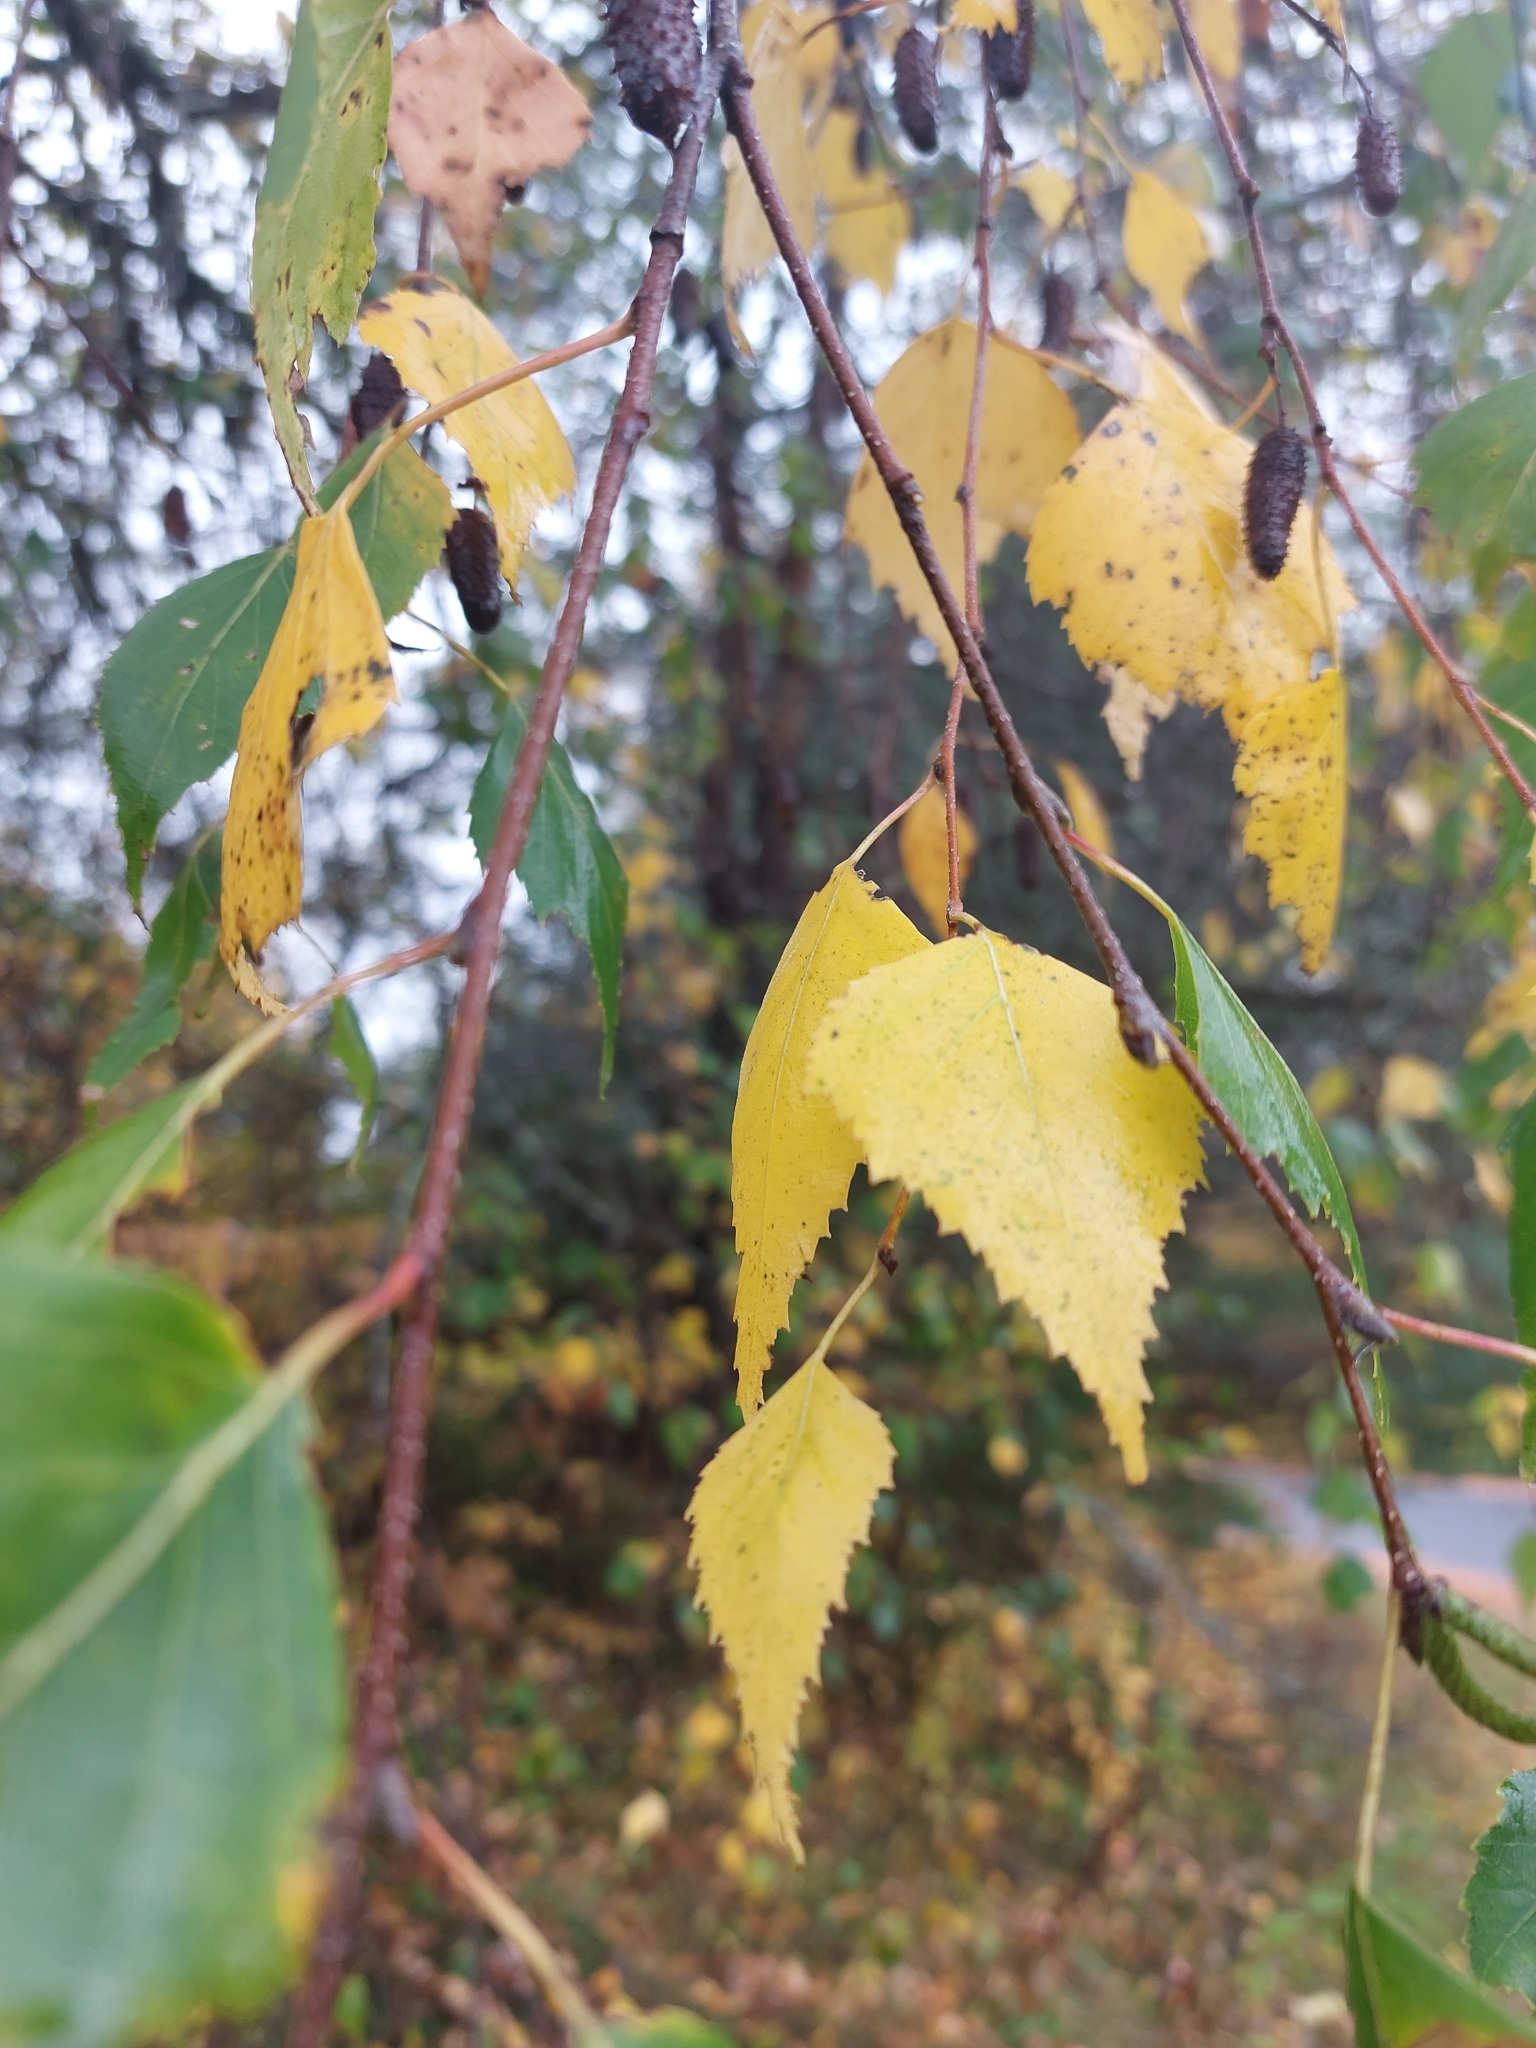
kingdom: Plantae
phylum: Tracheophyta
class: Magnoliopsida
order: Fagales
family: Betulaceae
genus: Betula
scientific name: Betula populifolia
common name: Fire birch
